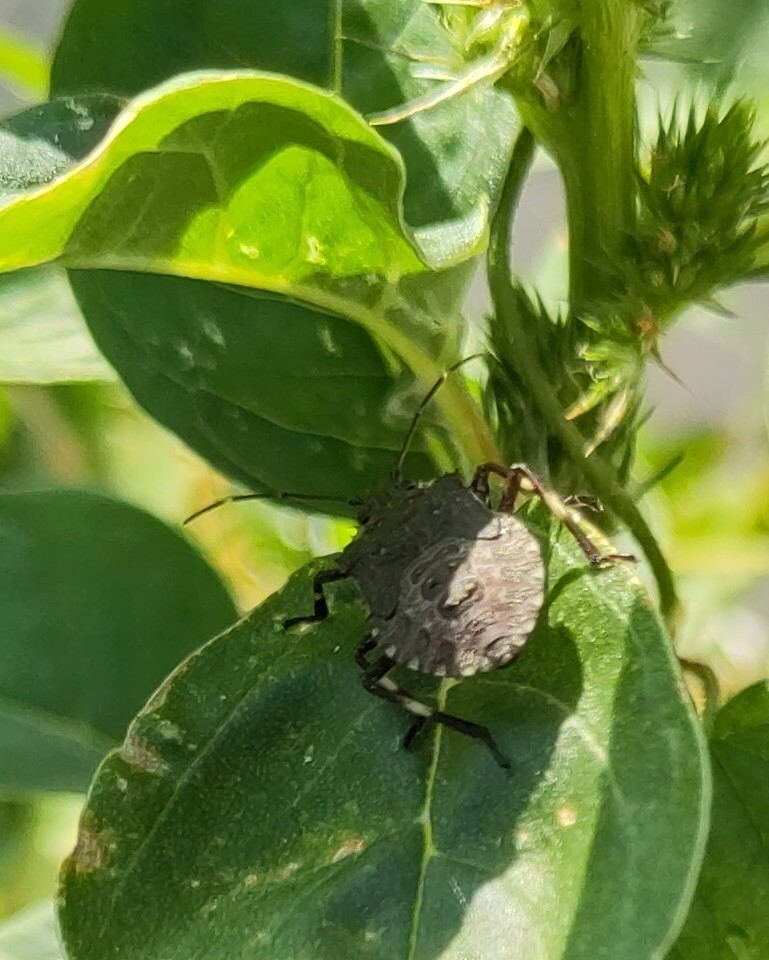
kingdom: Animalia
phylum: Arthropoda
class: Insecta
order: Hemiptera
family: Pentatomidae
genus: Halyomorpha
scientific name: Halyomorpha halys
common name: Brown marmorated stink bug
